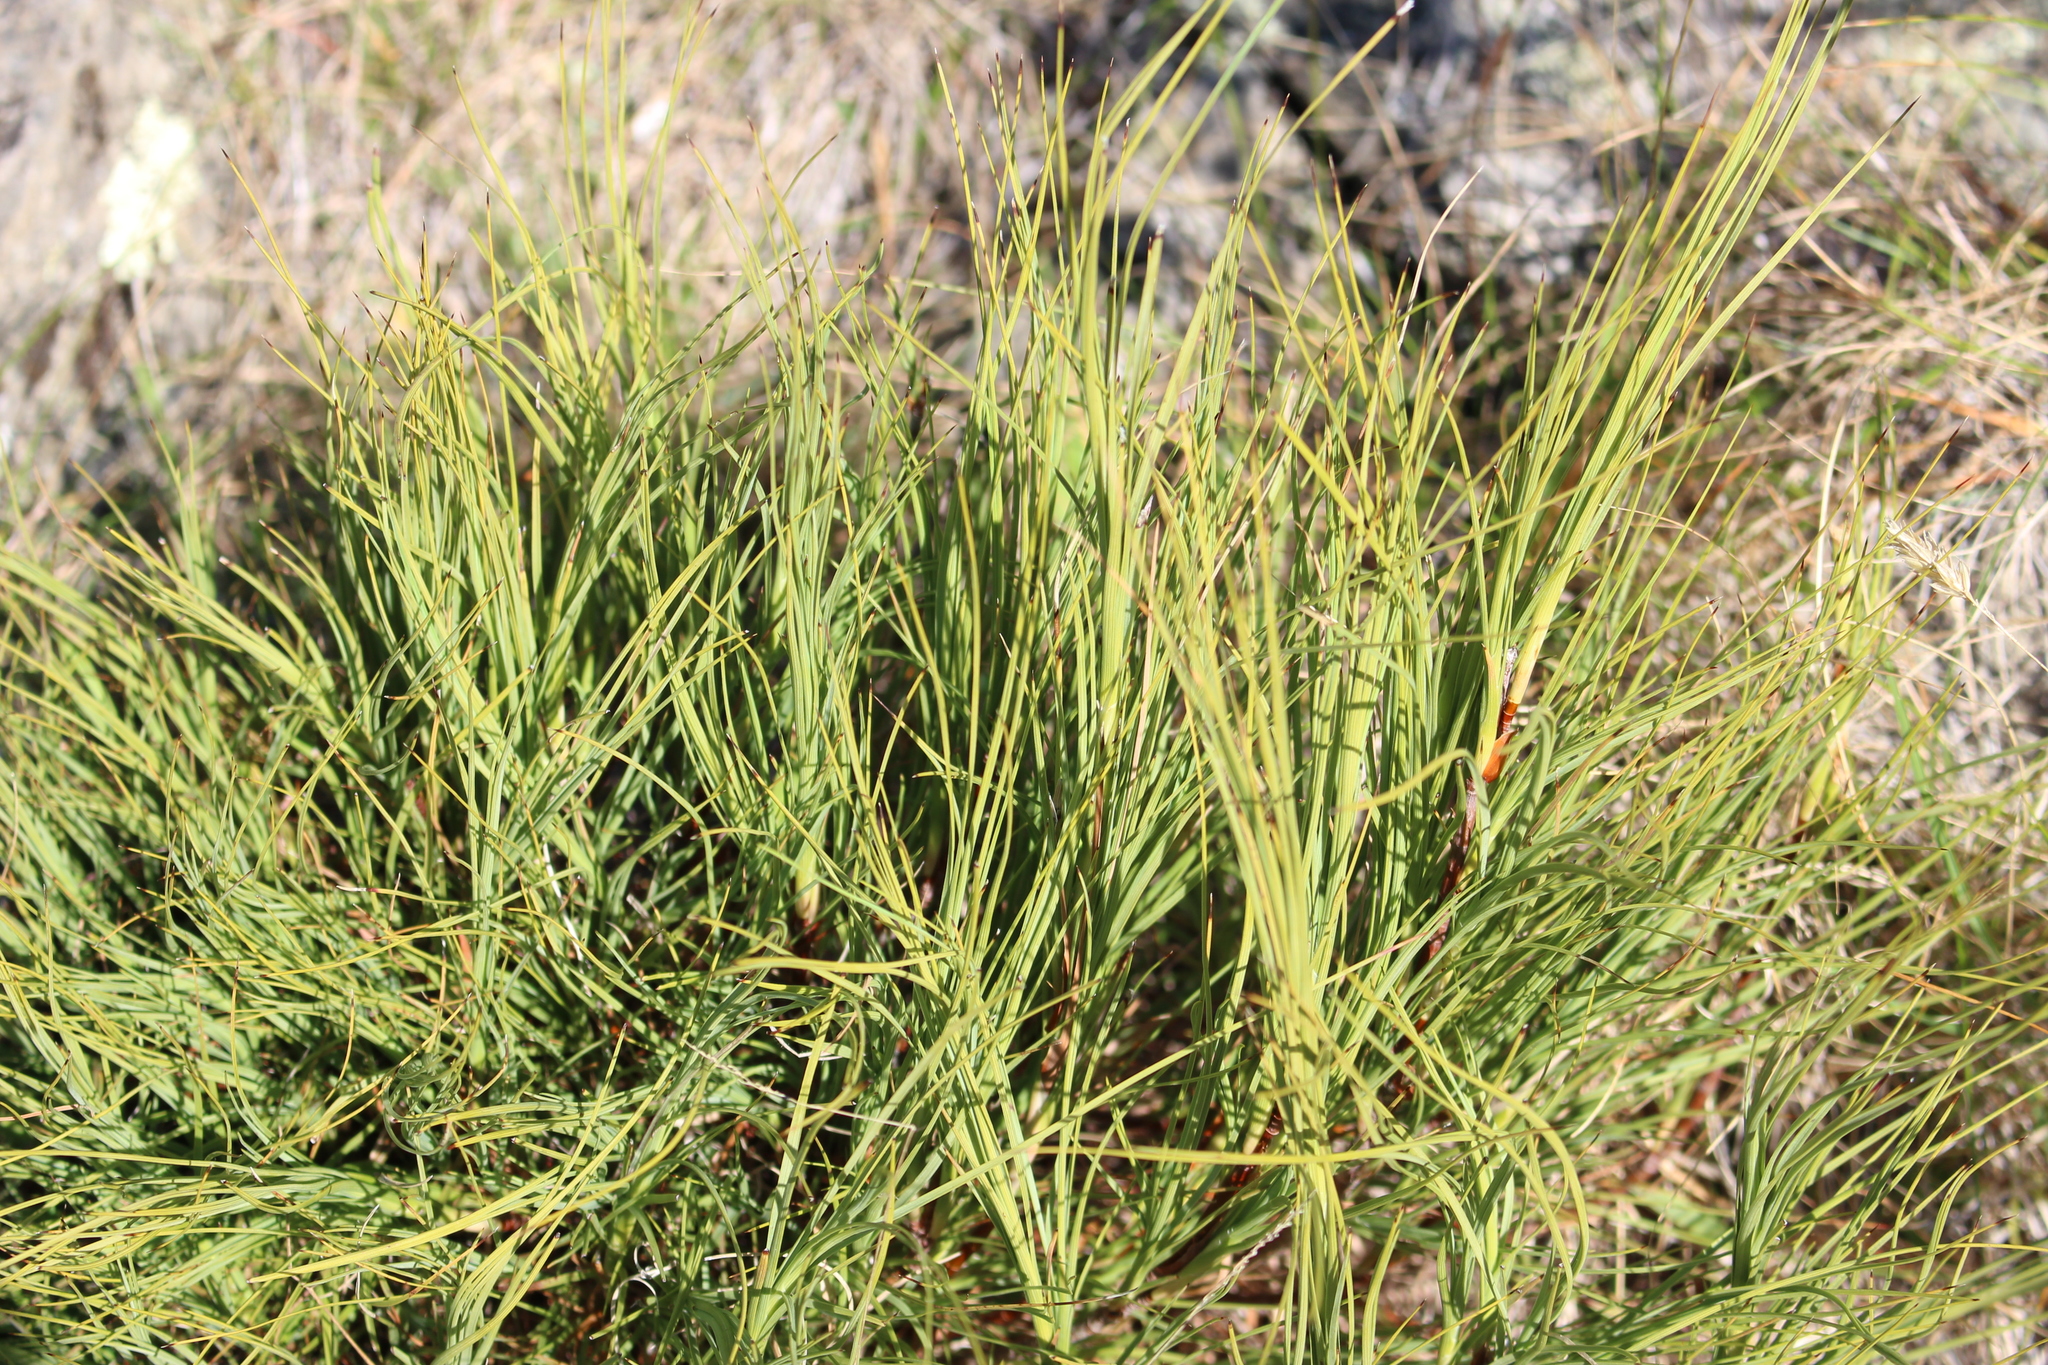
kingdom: Plantae
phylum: Tracheophyta
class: Magnoliopsida
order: Ericales
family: Ericaceae
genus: Dracophyllum
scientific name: Dracophyllum acerosum
